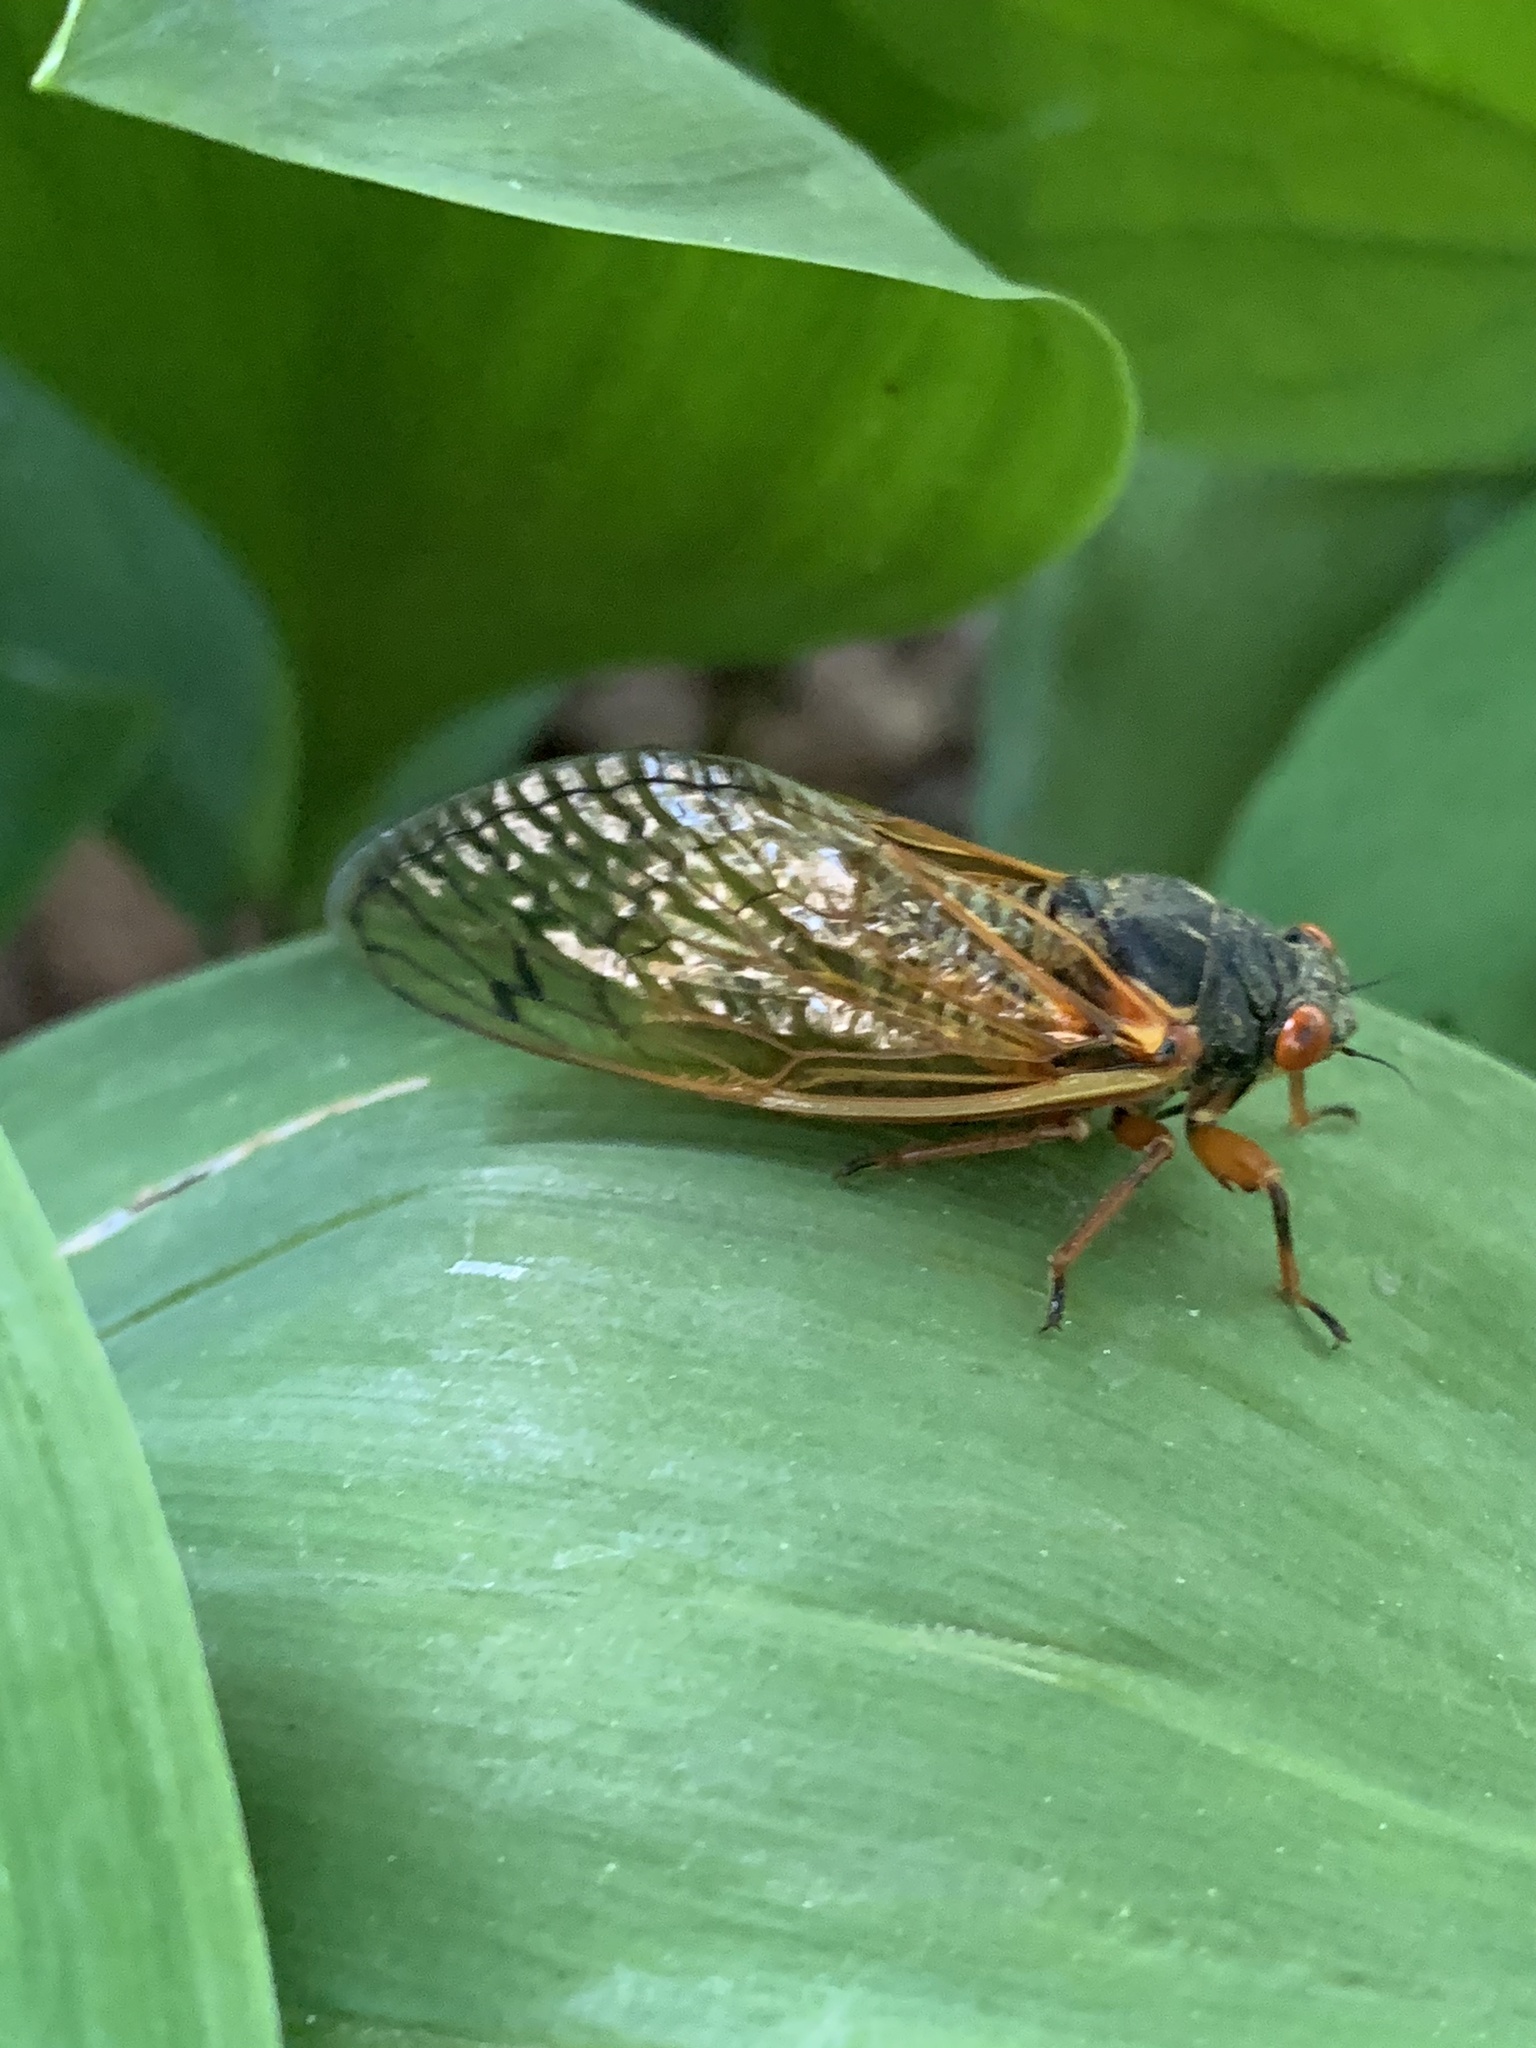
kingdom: Animalia
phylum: Arthropoda
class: Insecta
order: Hemiptera
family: Cicadidae
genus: Magicicada
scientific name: Magicicada cassini
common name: Cassin's 17-year cicada
